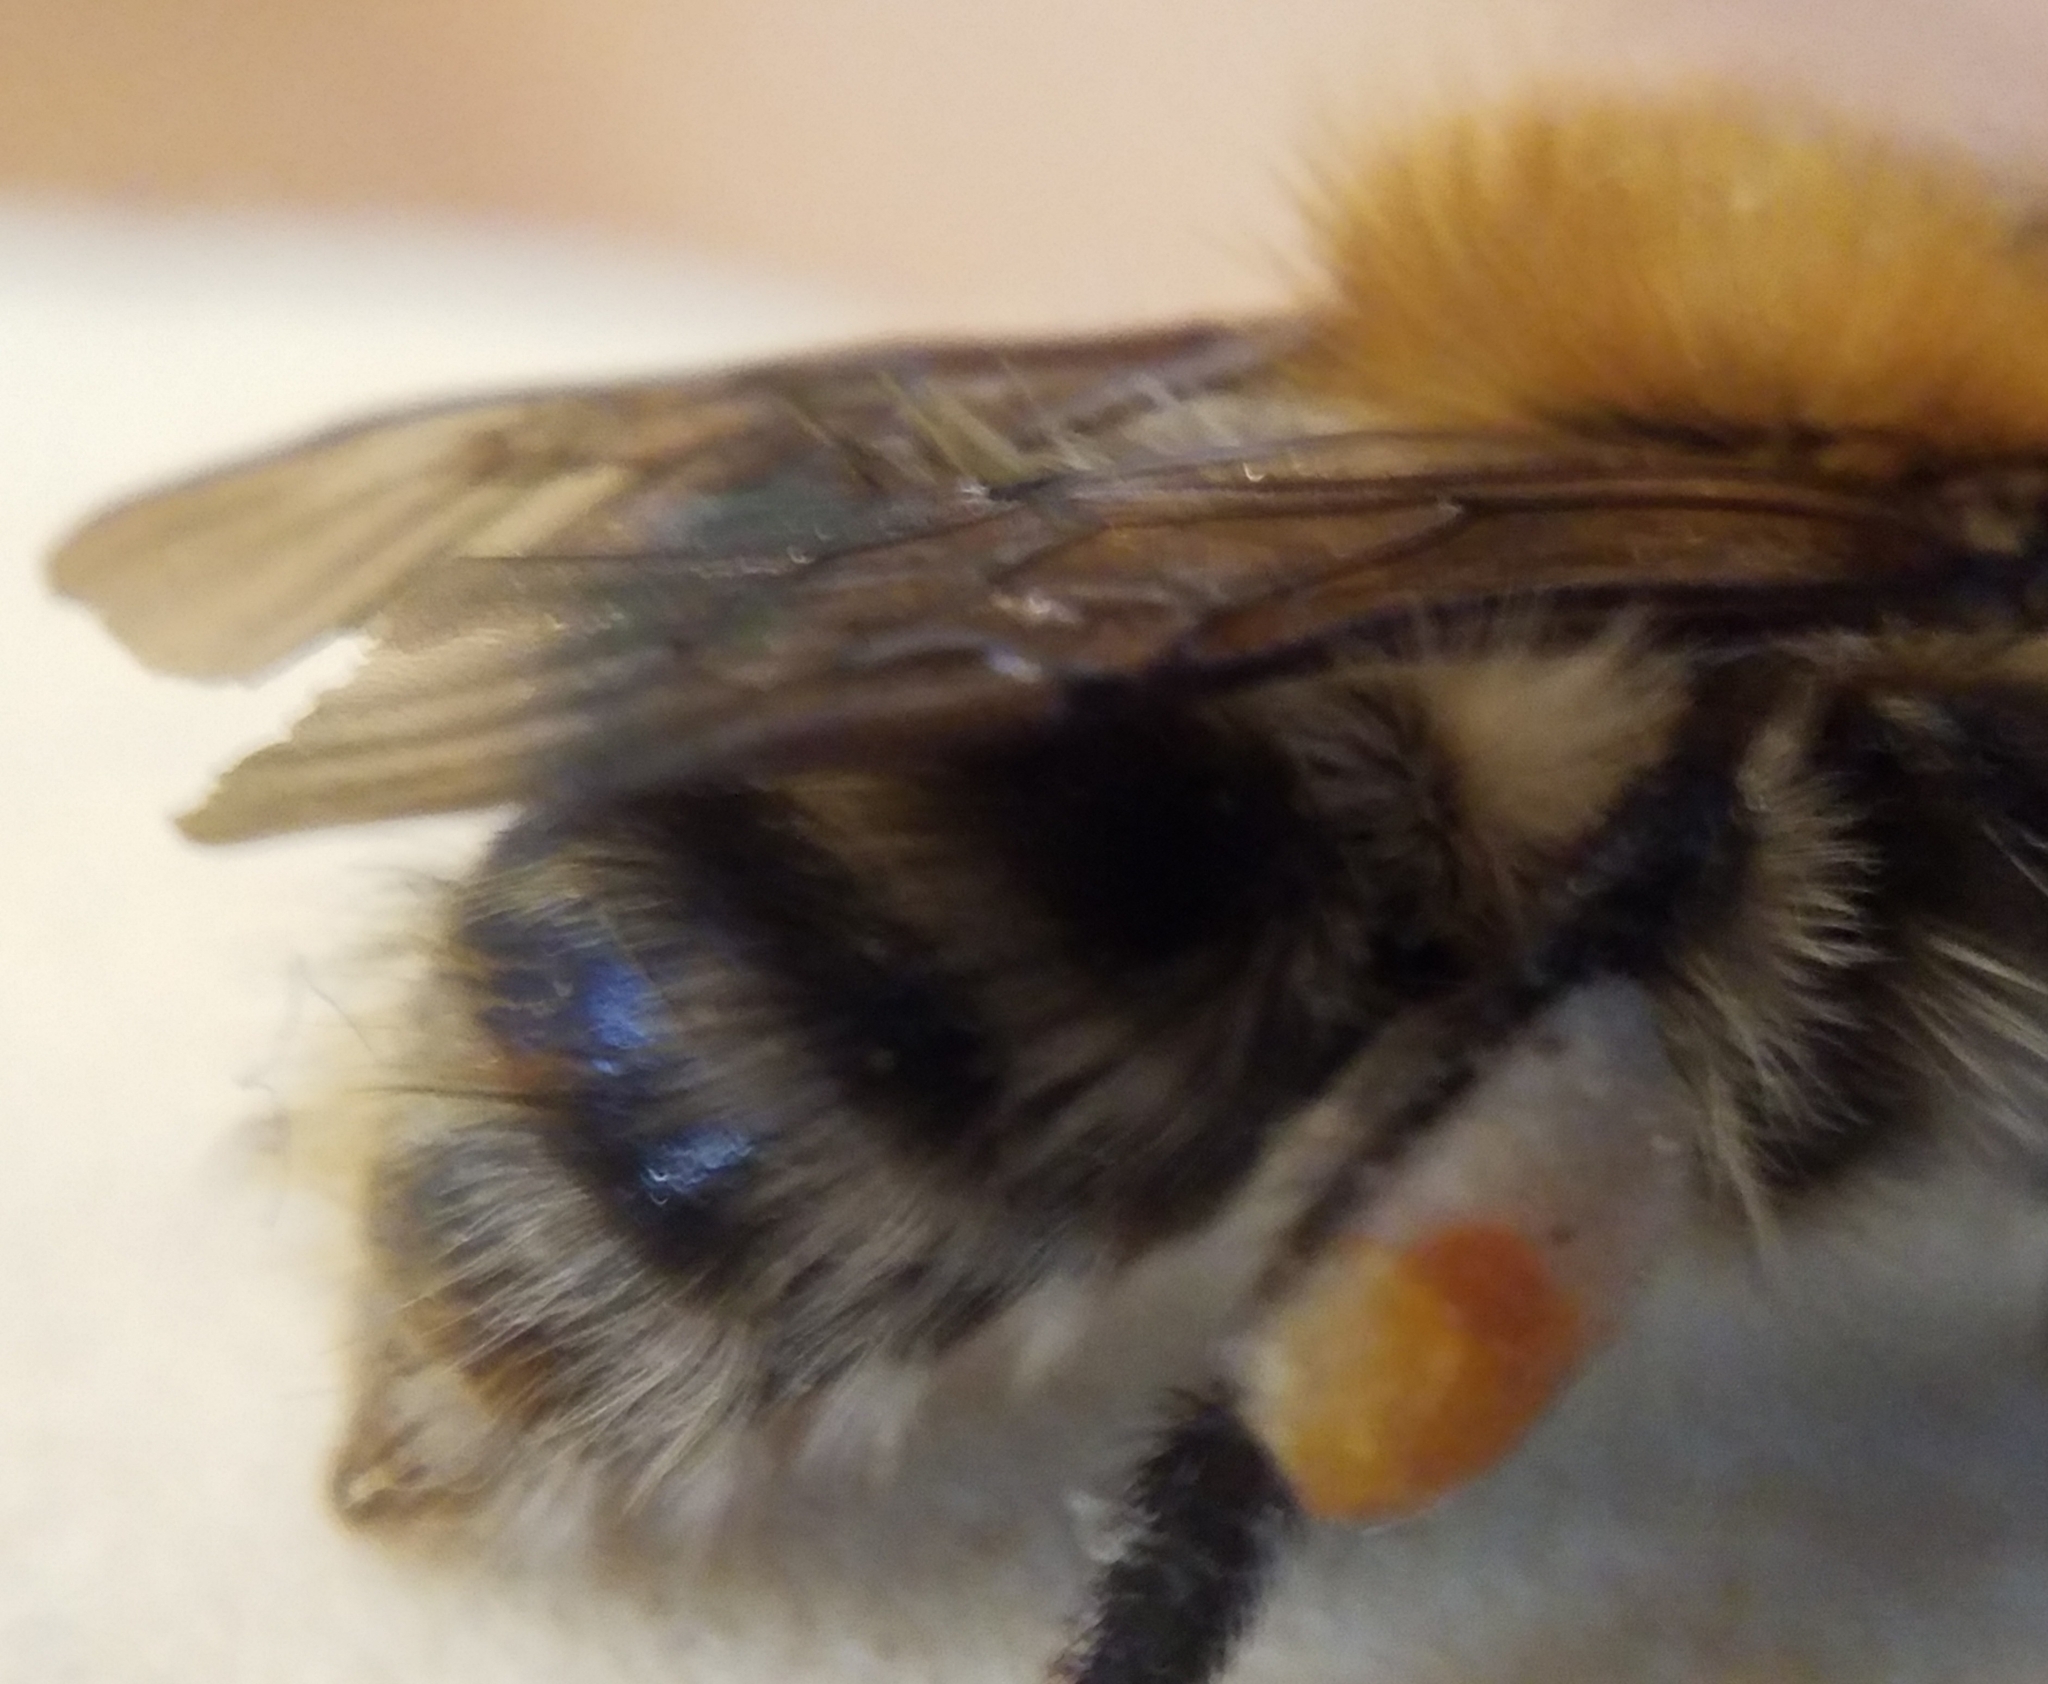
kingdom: Animalia
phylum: Arthropoda
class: Insecta
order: Hymenoptera
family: Apidae
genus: Bombus
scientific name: Bombus pascuorum
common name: Common carder bee
